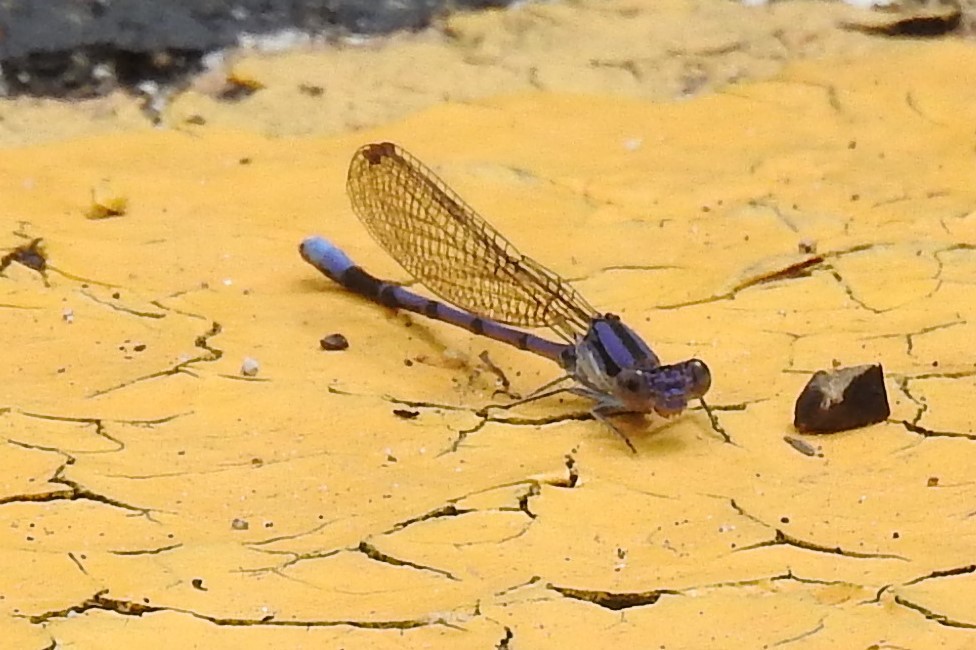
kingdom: Animalia
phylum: Arthropoda
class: Insecta
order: Odonata
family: Coenagrionidae
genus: Argia
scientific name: Argia fumipennis
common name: Variable dancer
